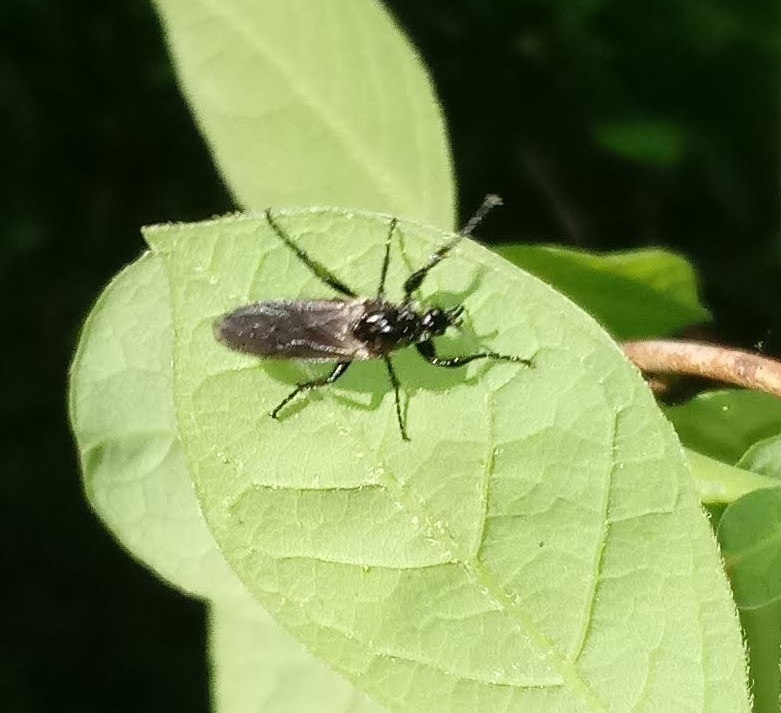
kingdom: Animalia
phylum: Arthropoda
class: Insecta
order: Diptera
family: Bibionidae
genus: Bibio
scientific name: Bibio albipennis
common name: White-winged march fly
